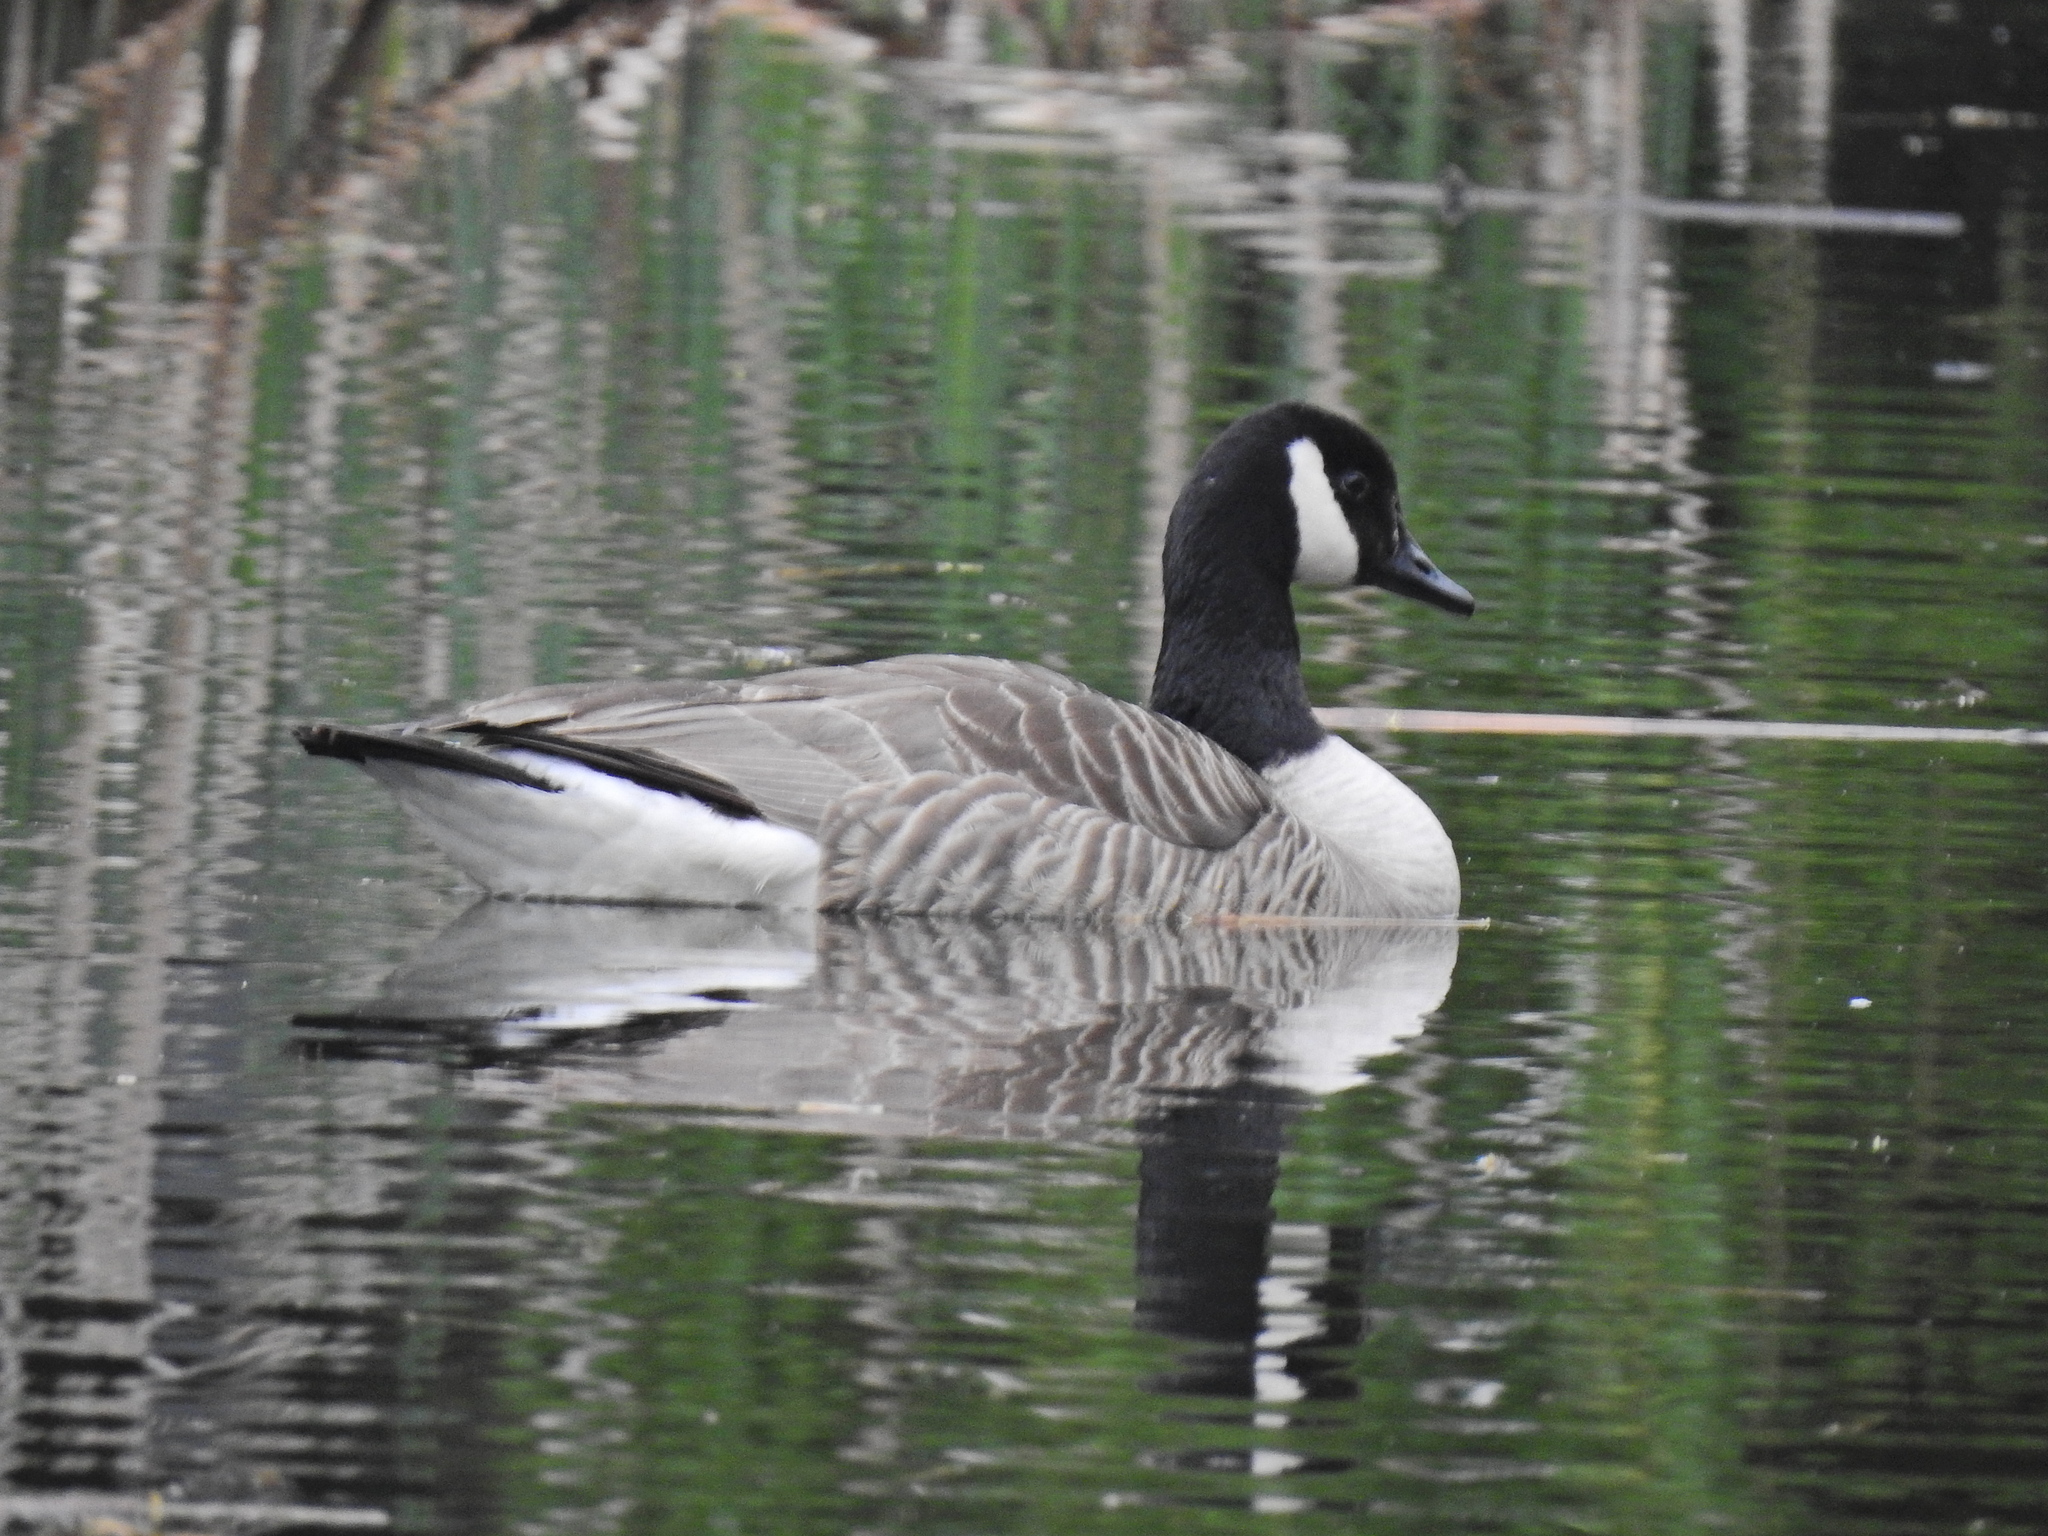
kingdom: Animalia
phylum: Chordata
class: Aves
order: Anseriformes
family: Anatidae
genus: Branta
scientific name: Branta canadensis
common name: Canada goose
